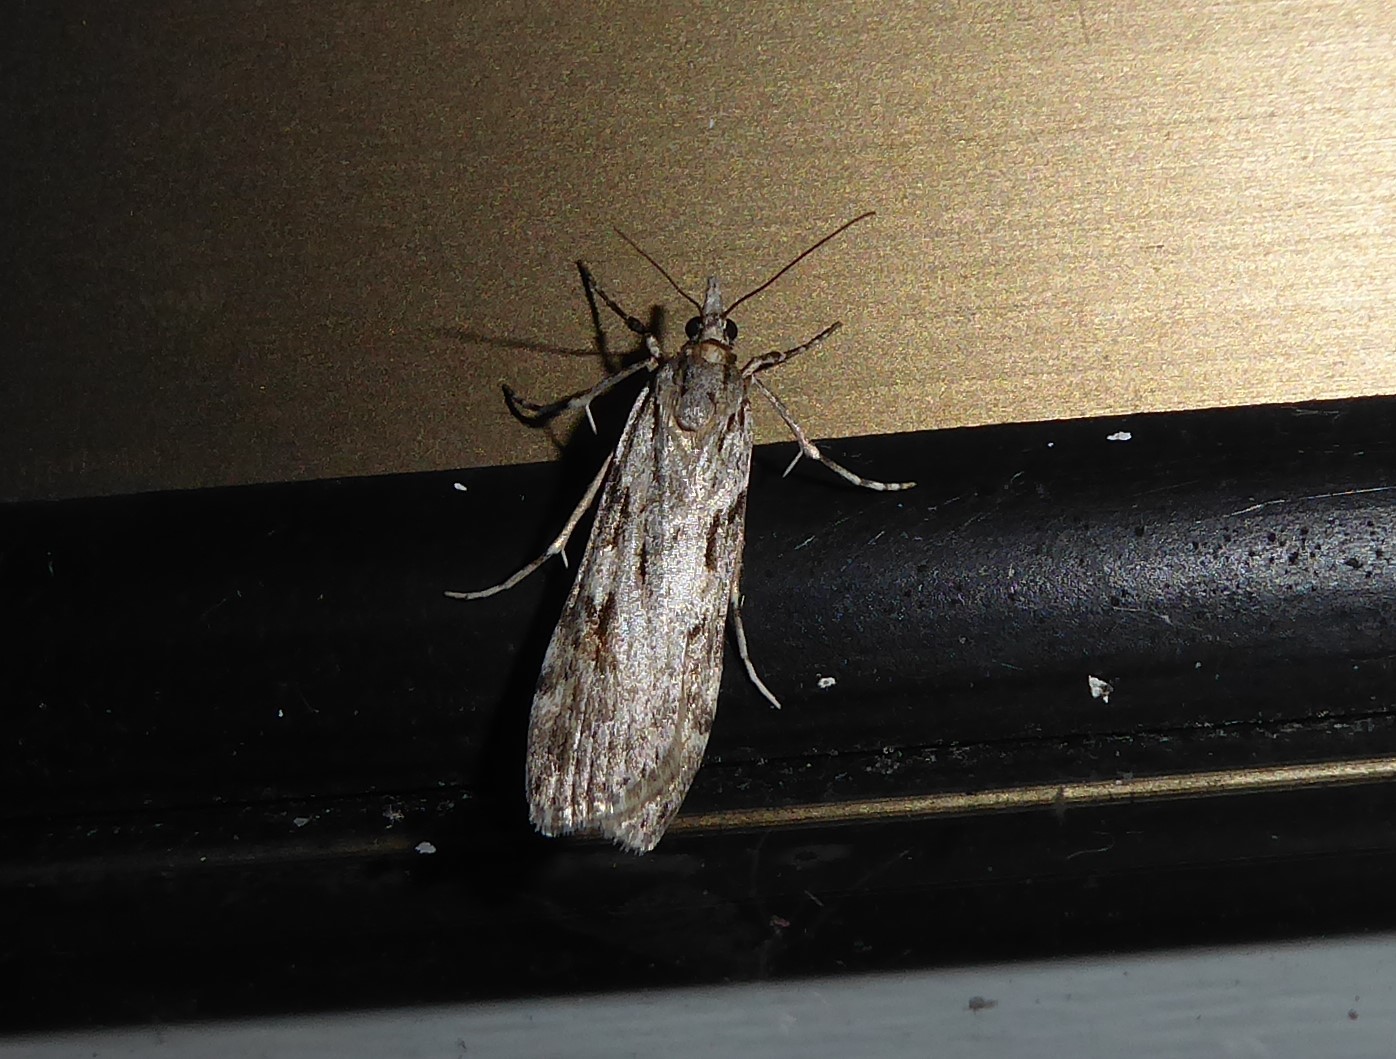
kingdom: Animalia
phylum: Arthropoda
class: Insecta
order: Lepidoptera
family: Crambidae
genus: Scoparia
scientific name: Scoparia halopis
